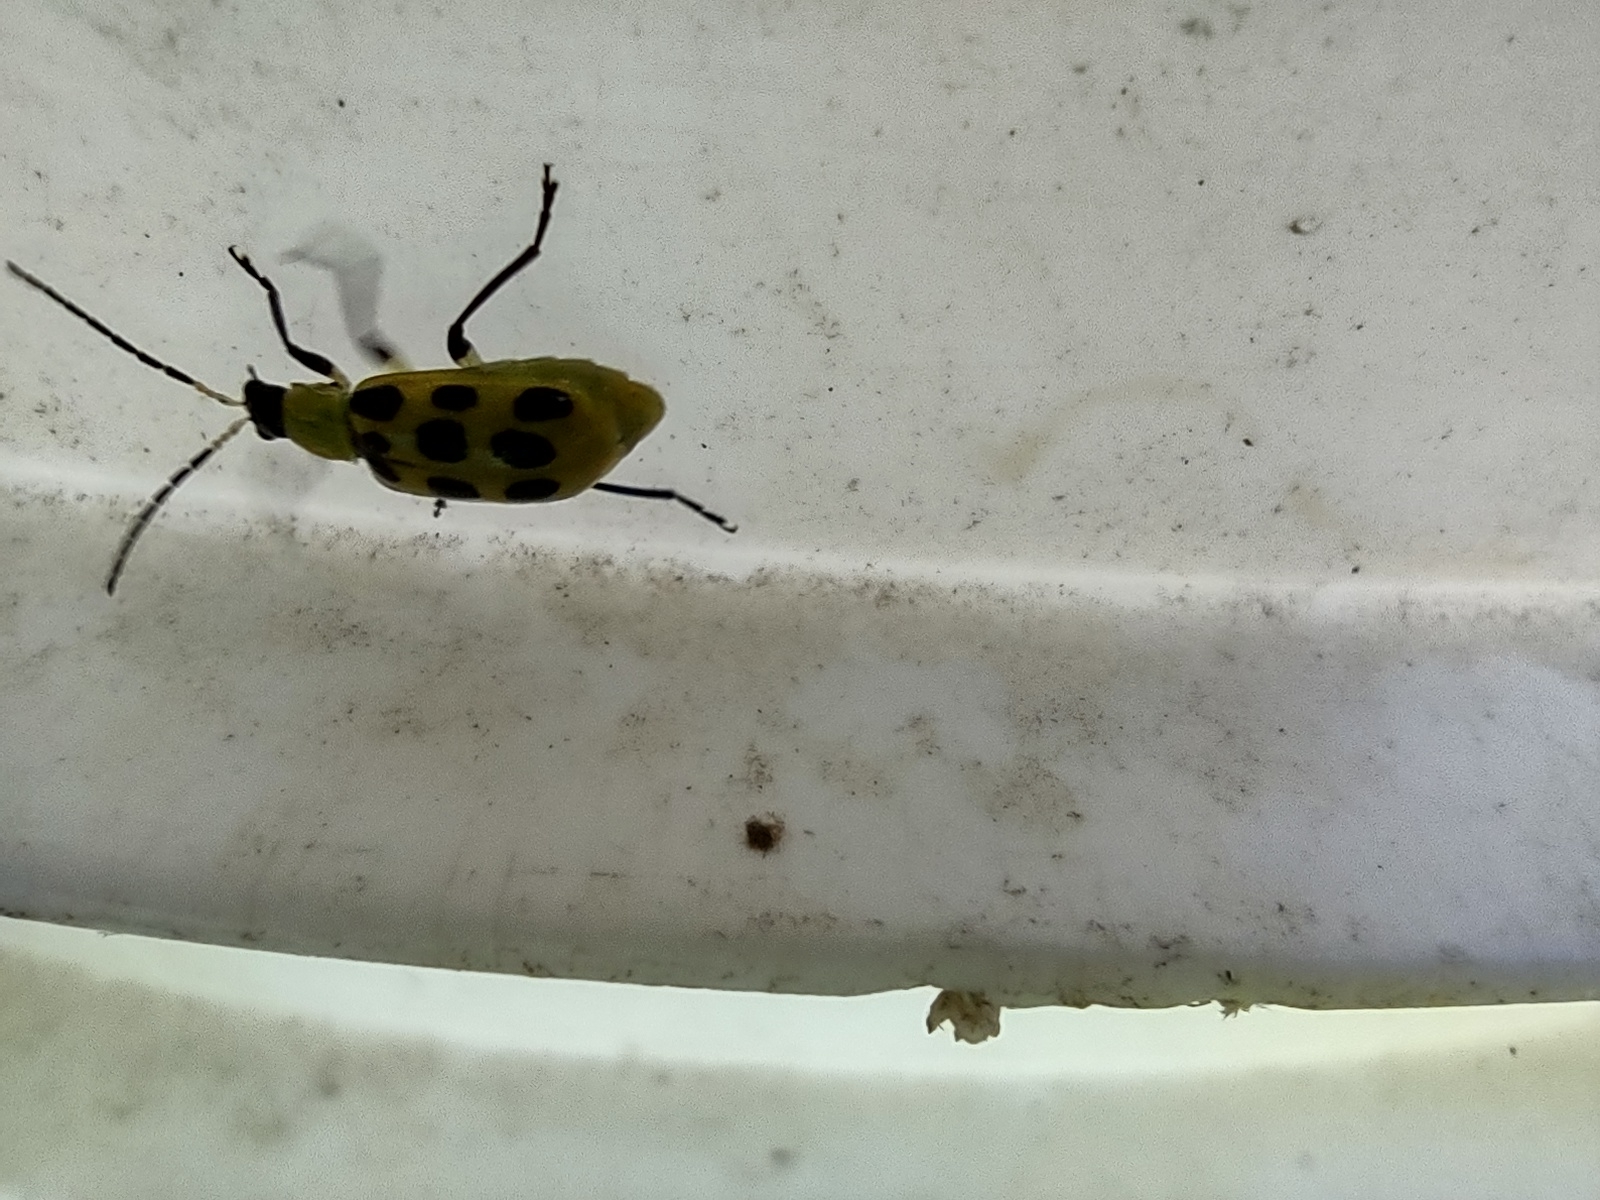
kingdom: Animalia
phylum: Arthropoda
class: Insecta
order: Coleoptera
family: Chrysomelidae
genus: Diabrotica
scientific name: Diabrotica undecimpunctata
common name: Spotted cucumber beetle
